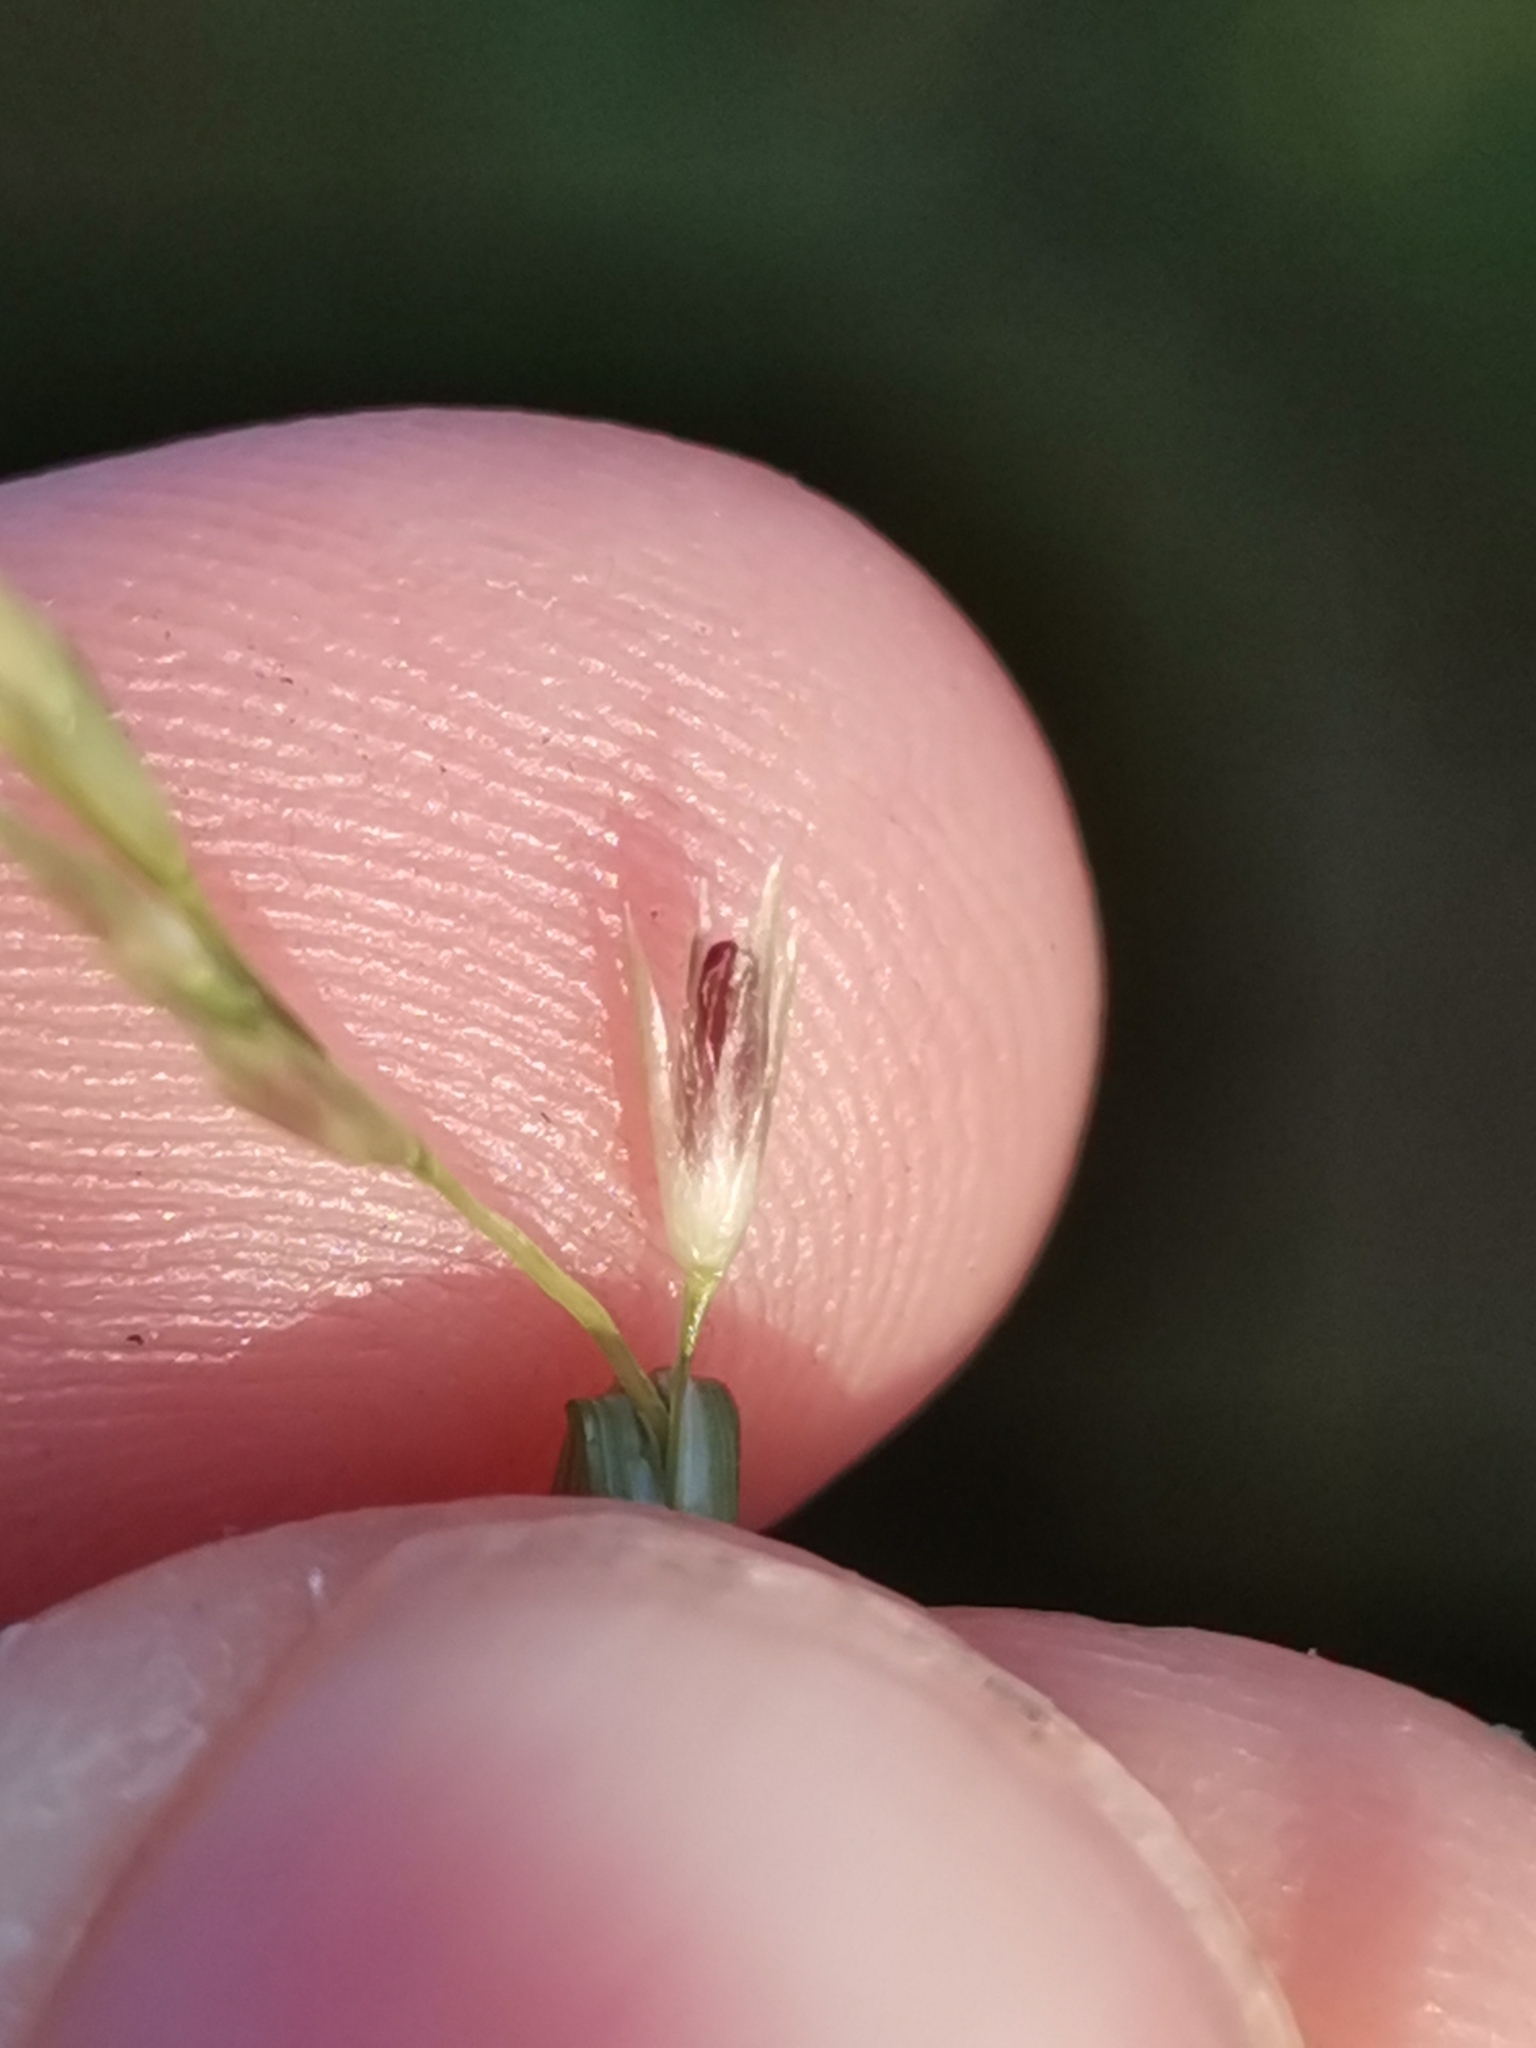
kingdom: Plantae
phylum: Tracheophyta
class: Liliopsida
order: Poales
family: Poaceae
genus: Sporobolus
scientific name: Sporobolus vaginiflorus
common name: Poverty dropseed
